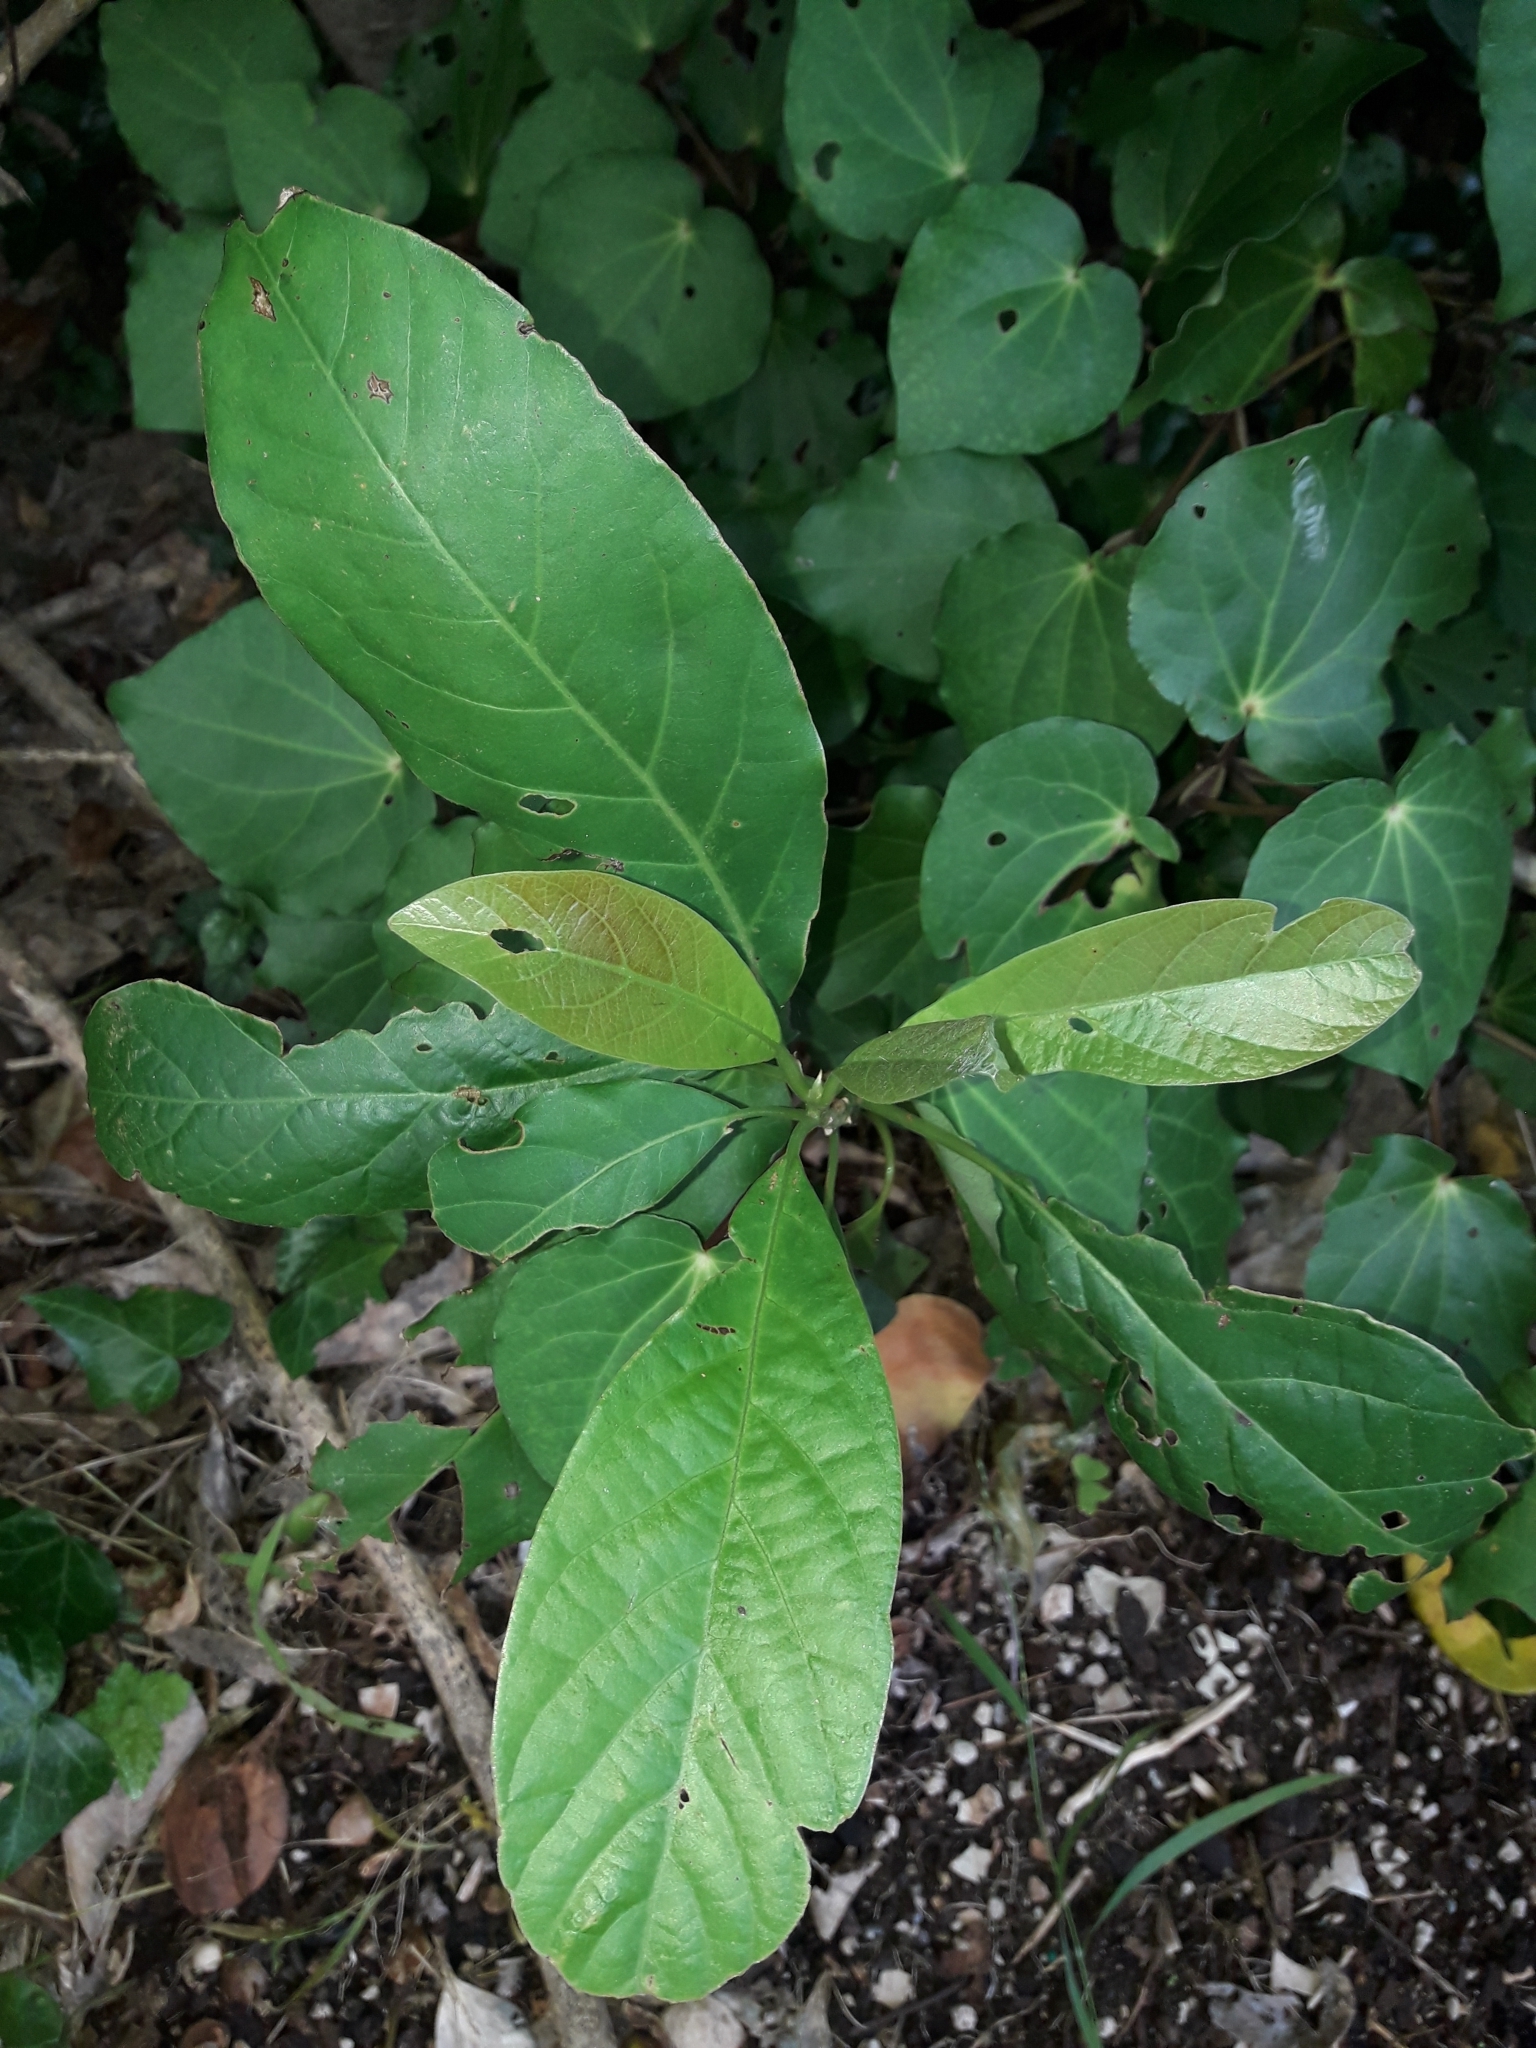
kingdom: Plantae
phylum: Tracheophyta
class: Magnoliopsida
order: Laurales
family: Lauraceae
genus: Persea
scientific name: Persea americana
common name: Avocado
